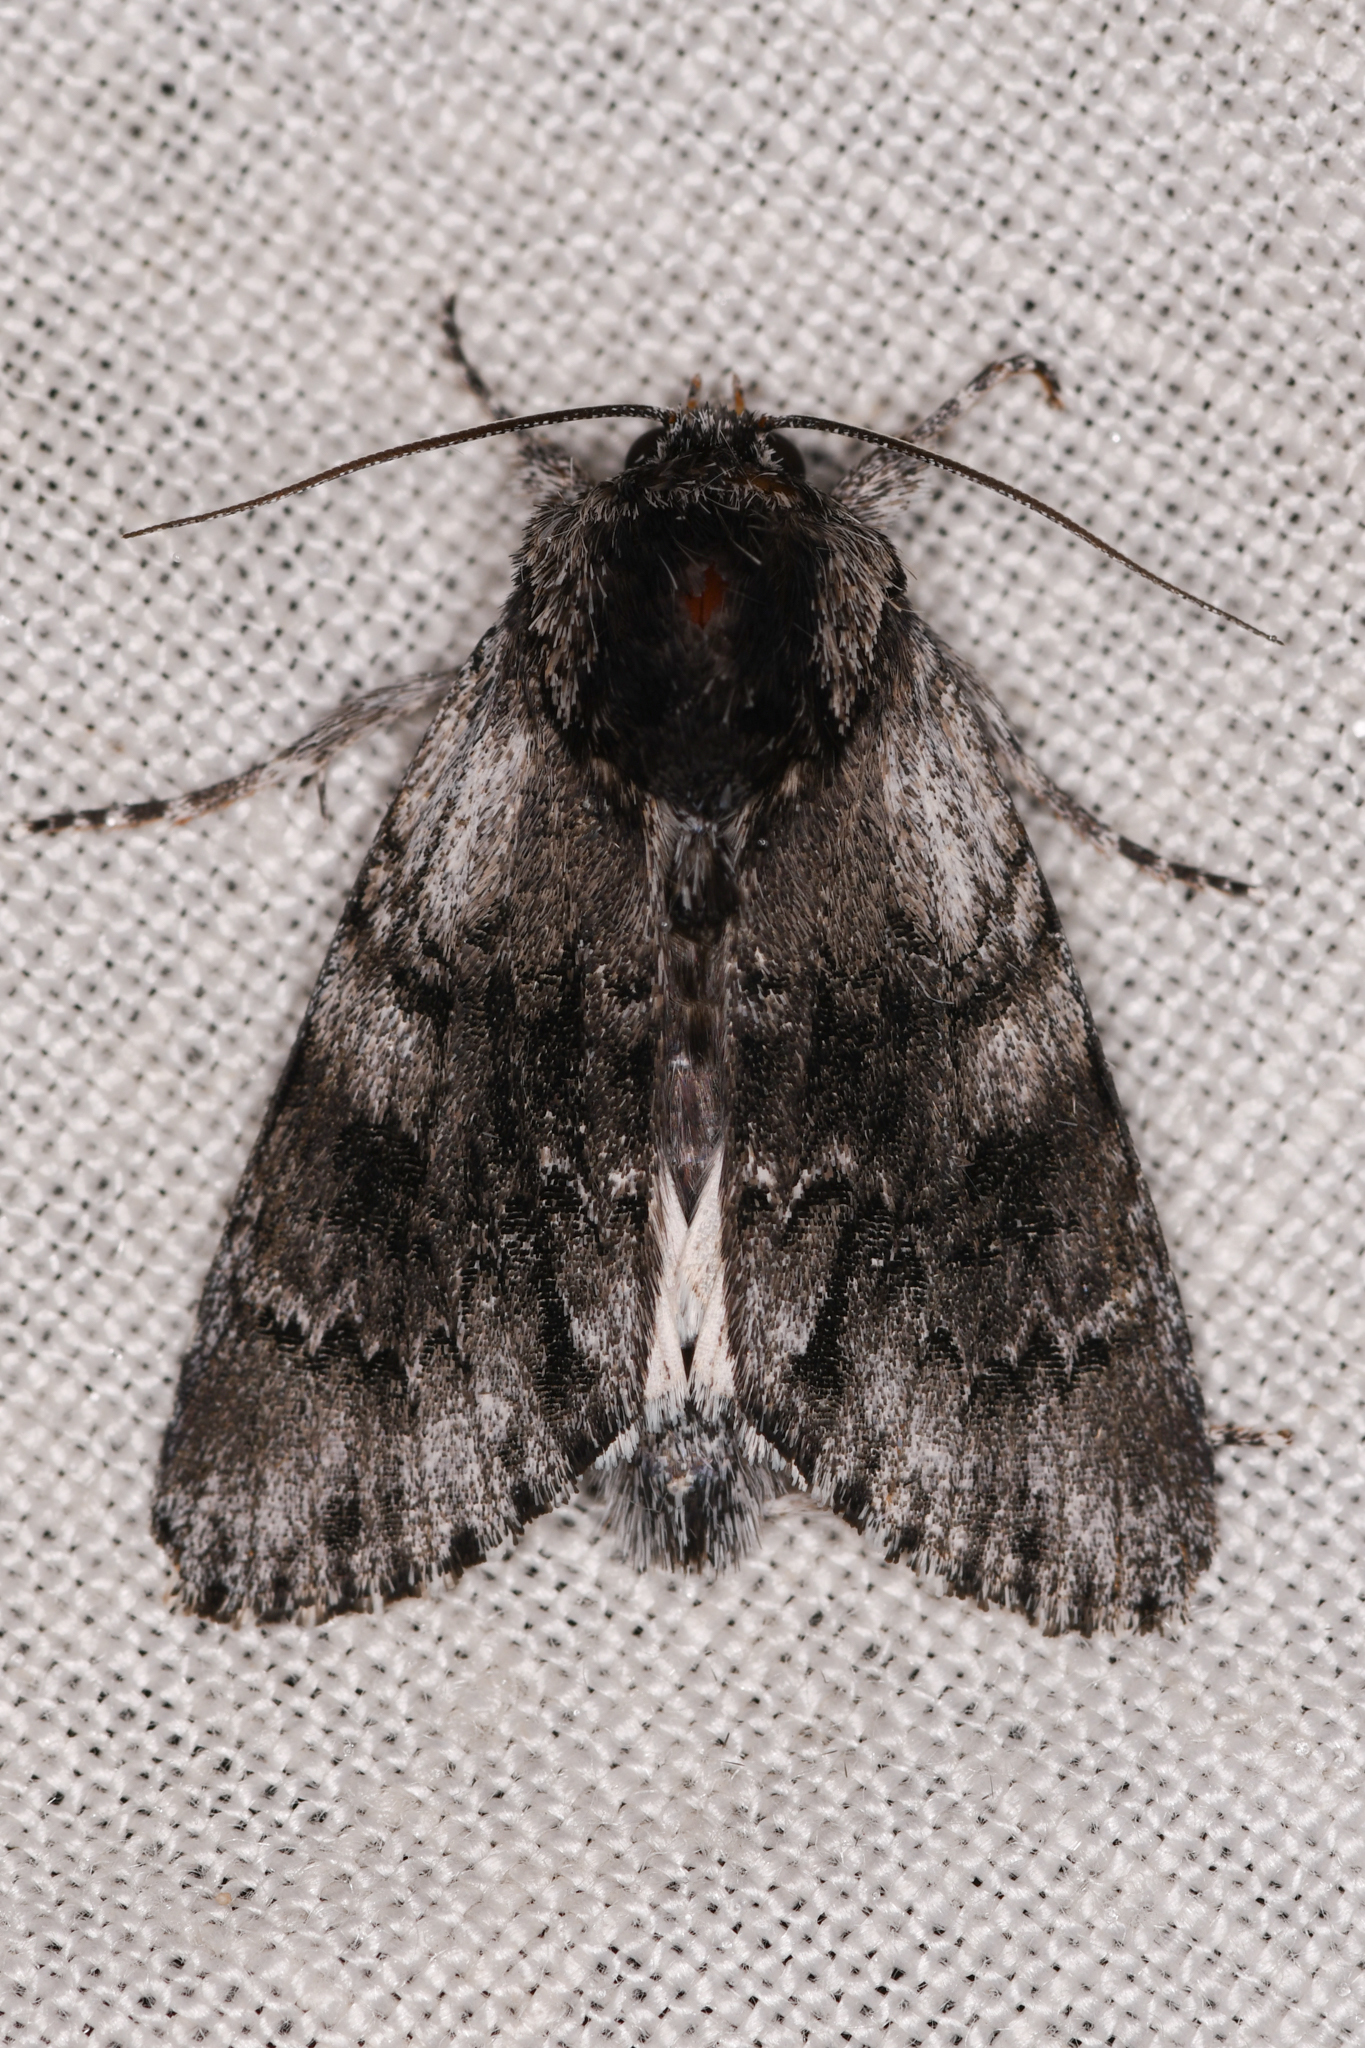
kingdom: Animalia
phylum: Arthropoda
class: Insecta
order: Lepidoptera
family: Noctuidae
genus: Acronicta
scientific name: Acronicta othello
